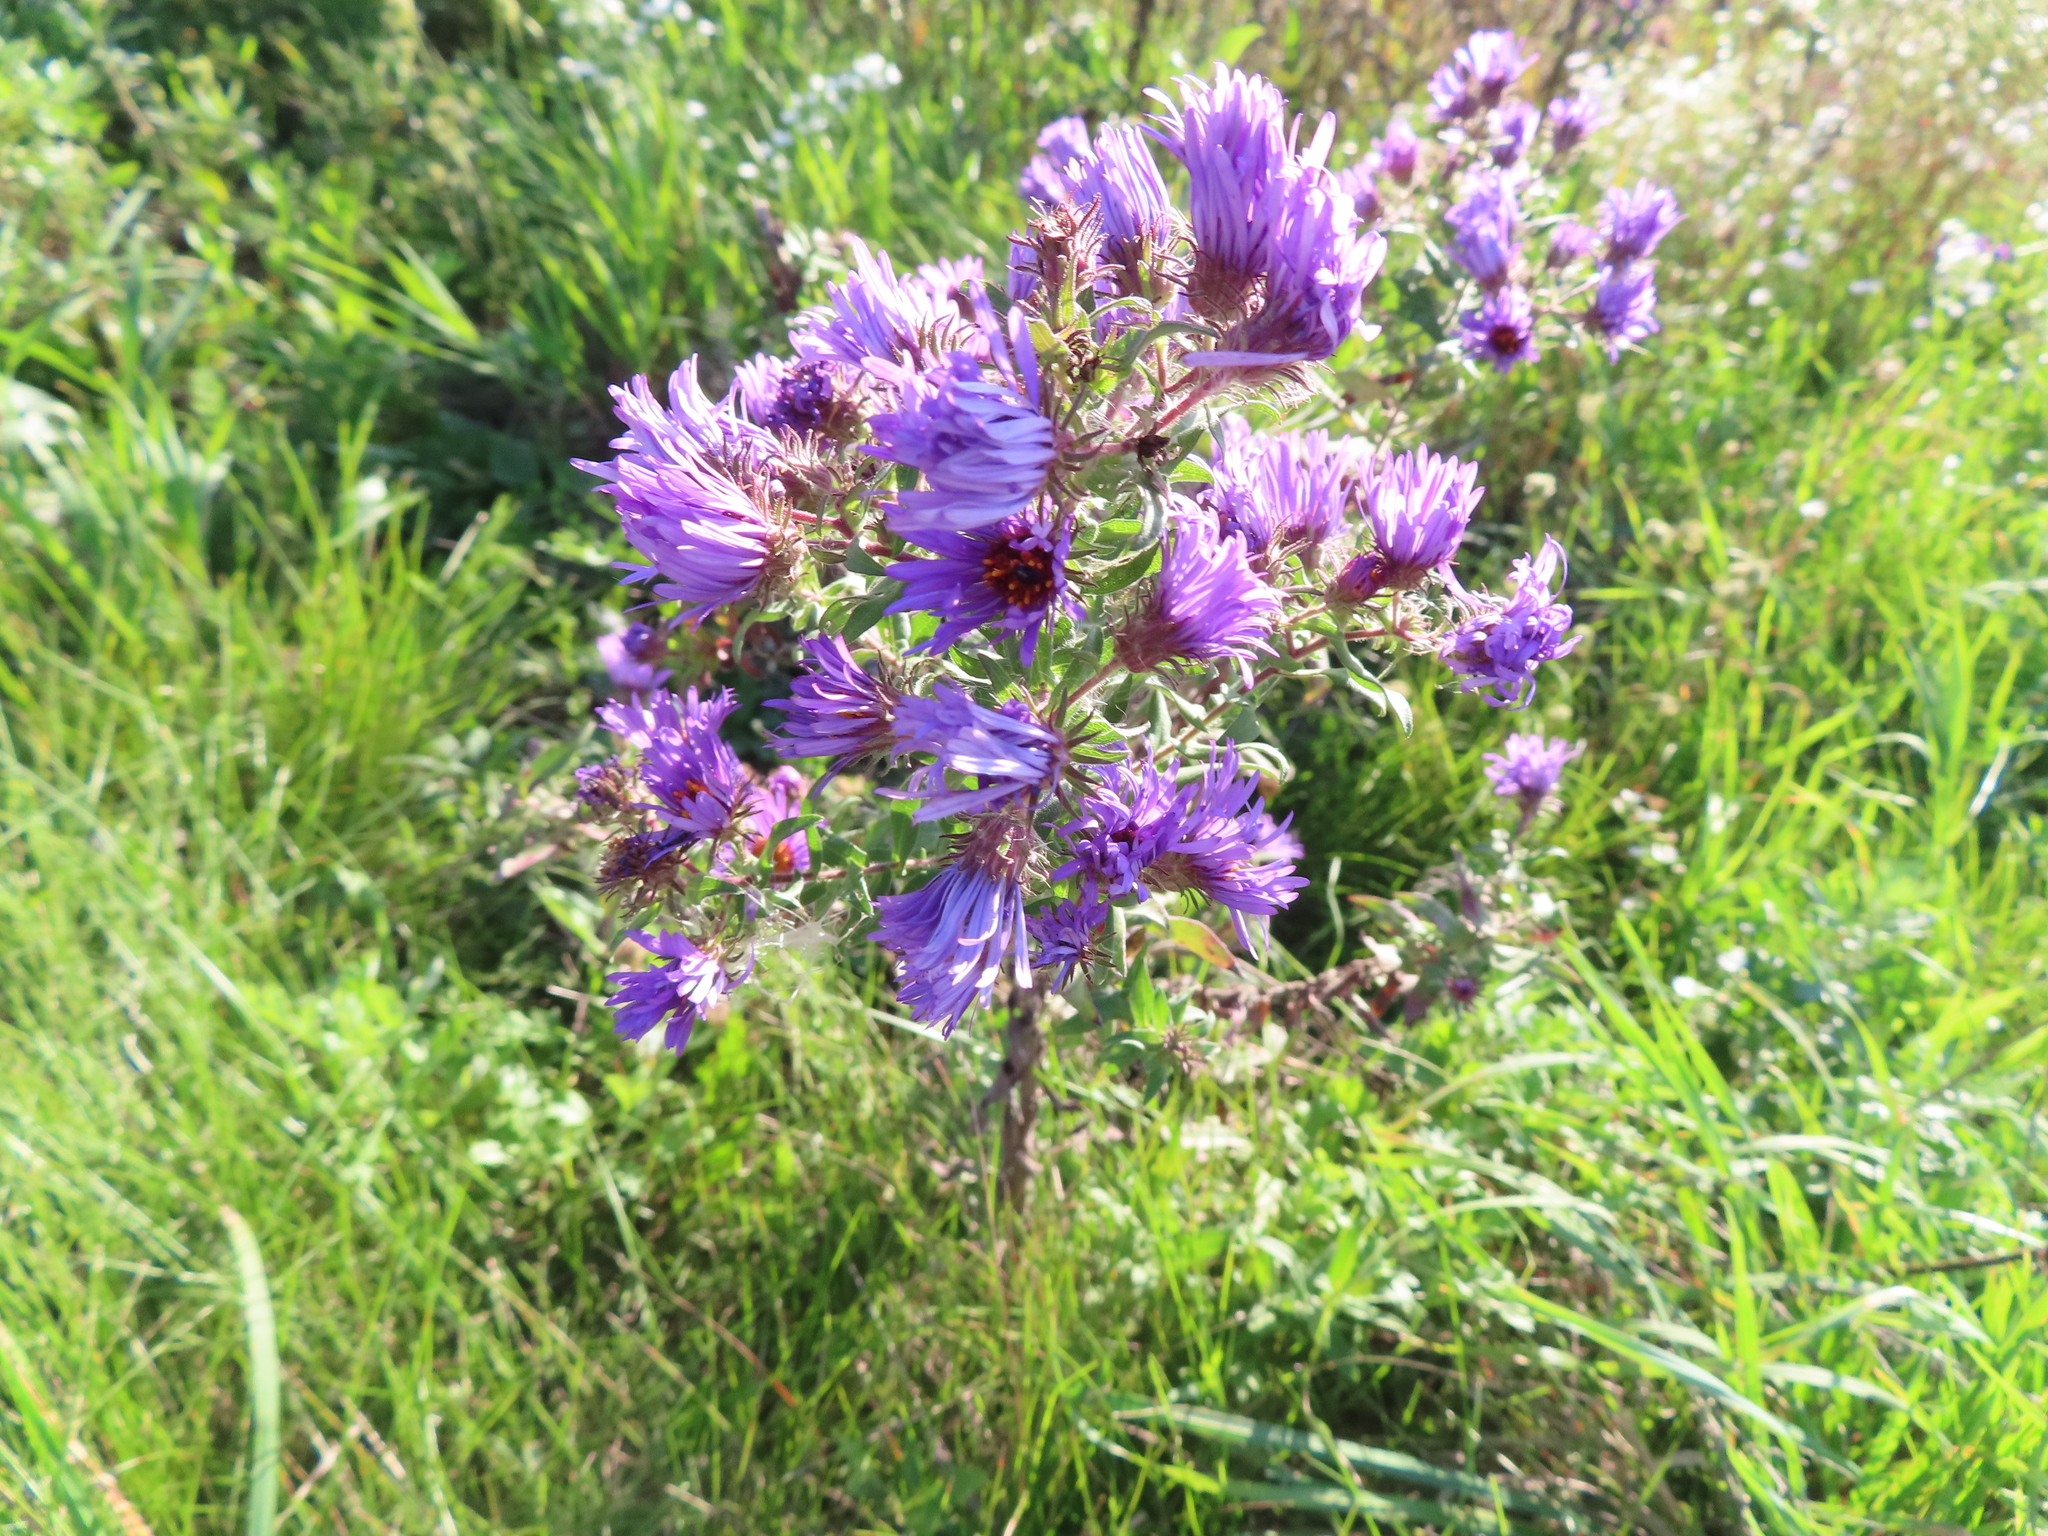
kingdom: Plantae
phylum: Tracheophyta
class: Magnoliopsida
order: Asterales
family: Asteraceae
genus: Symphyotrichum
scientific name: Symphyotrichum novae-angliae
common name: Michaelmas daisy
